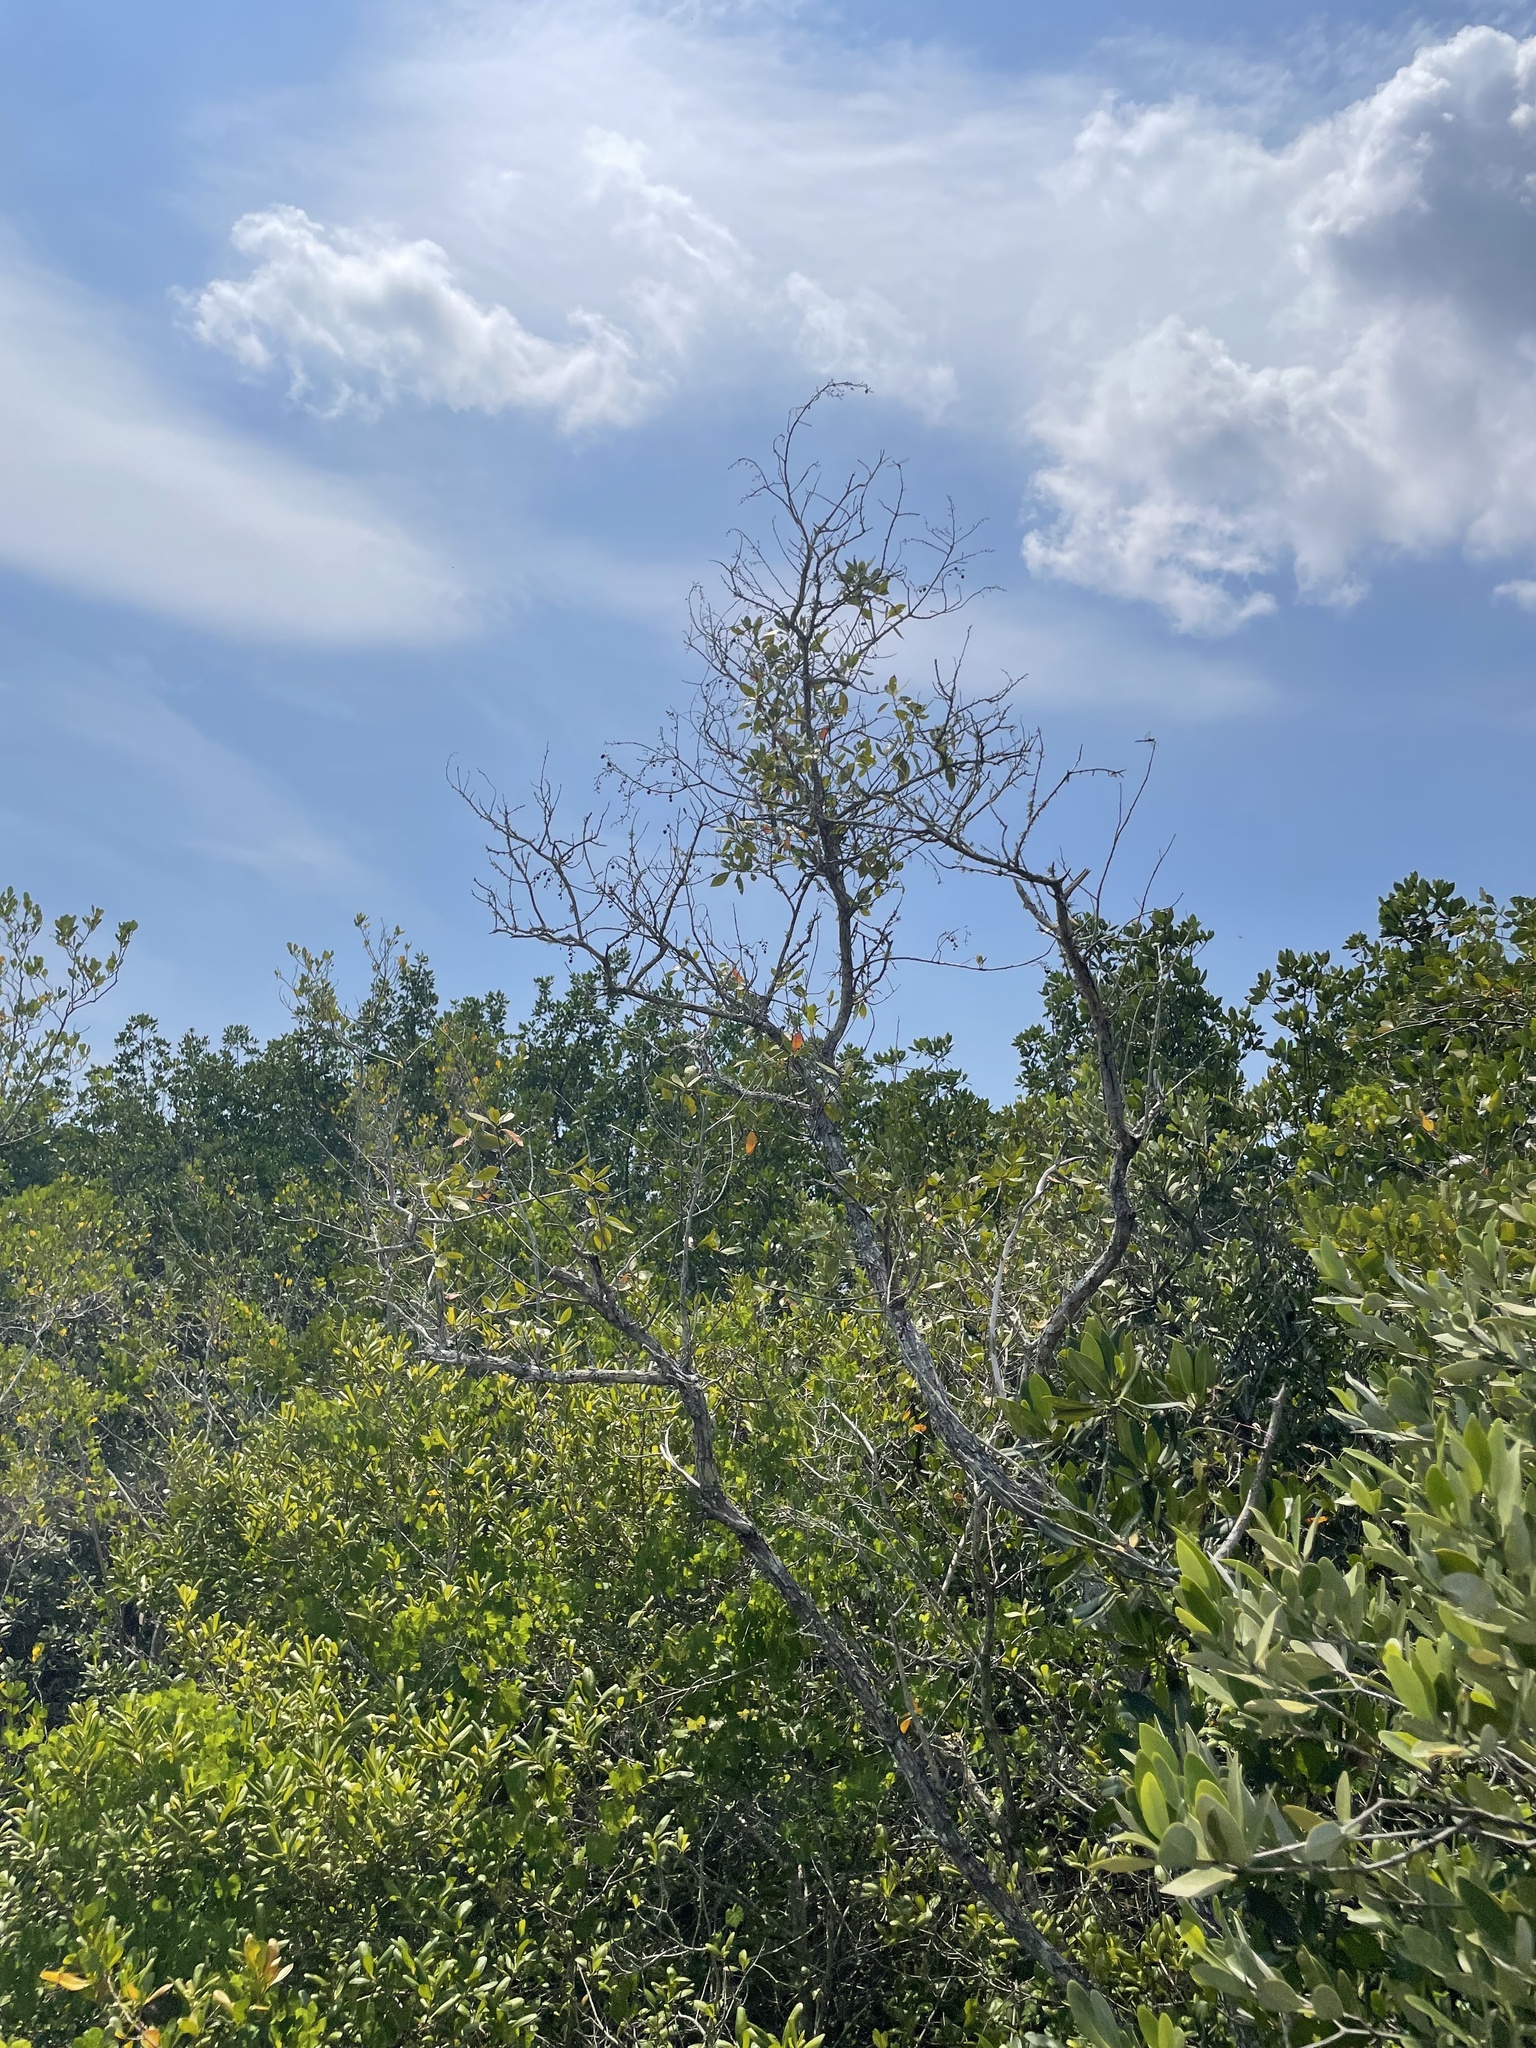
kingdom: Plantae
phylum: Tracheophyta
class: Magnoliopsida
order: Myrtales
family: Combretaceae
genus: Conocarpus
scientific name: Conocarpus erectus
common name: Button mangrove
